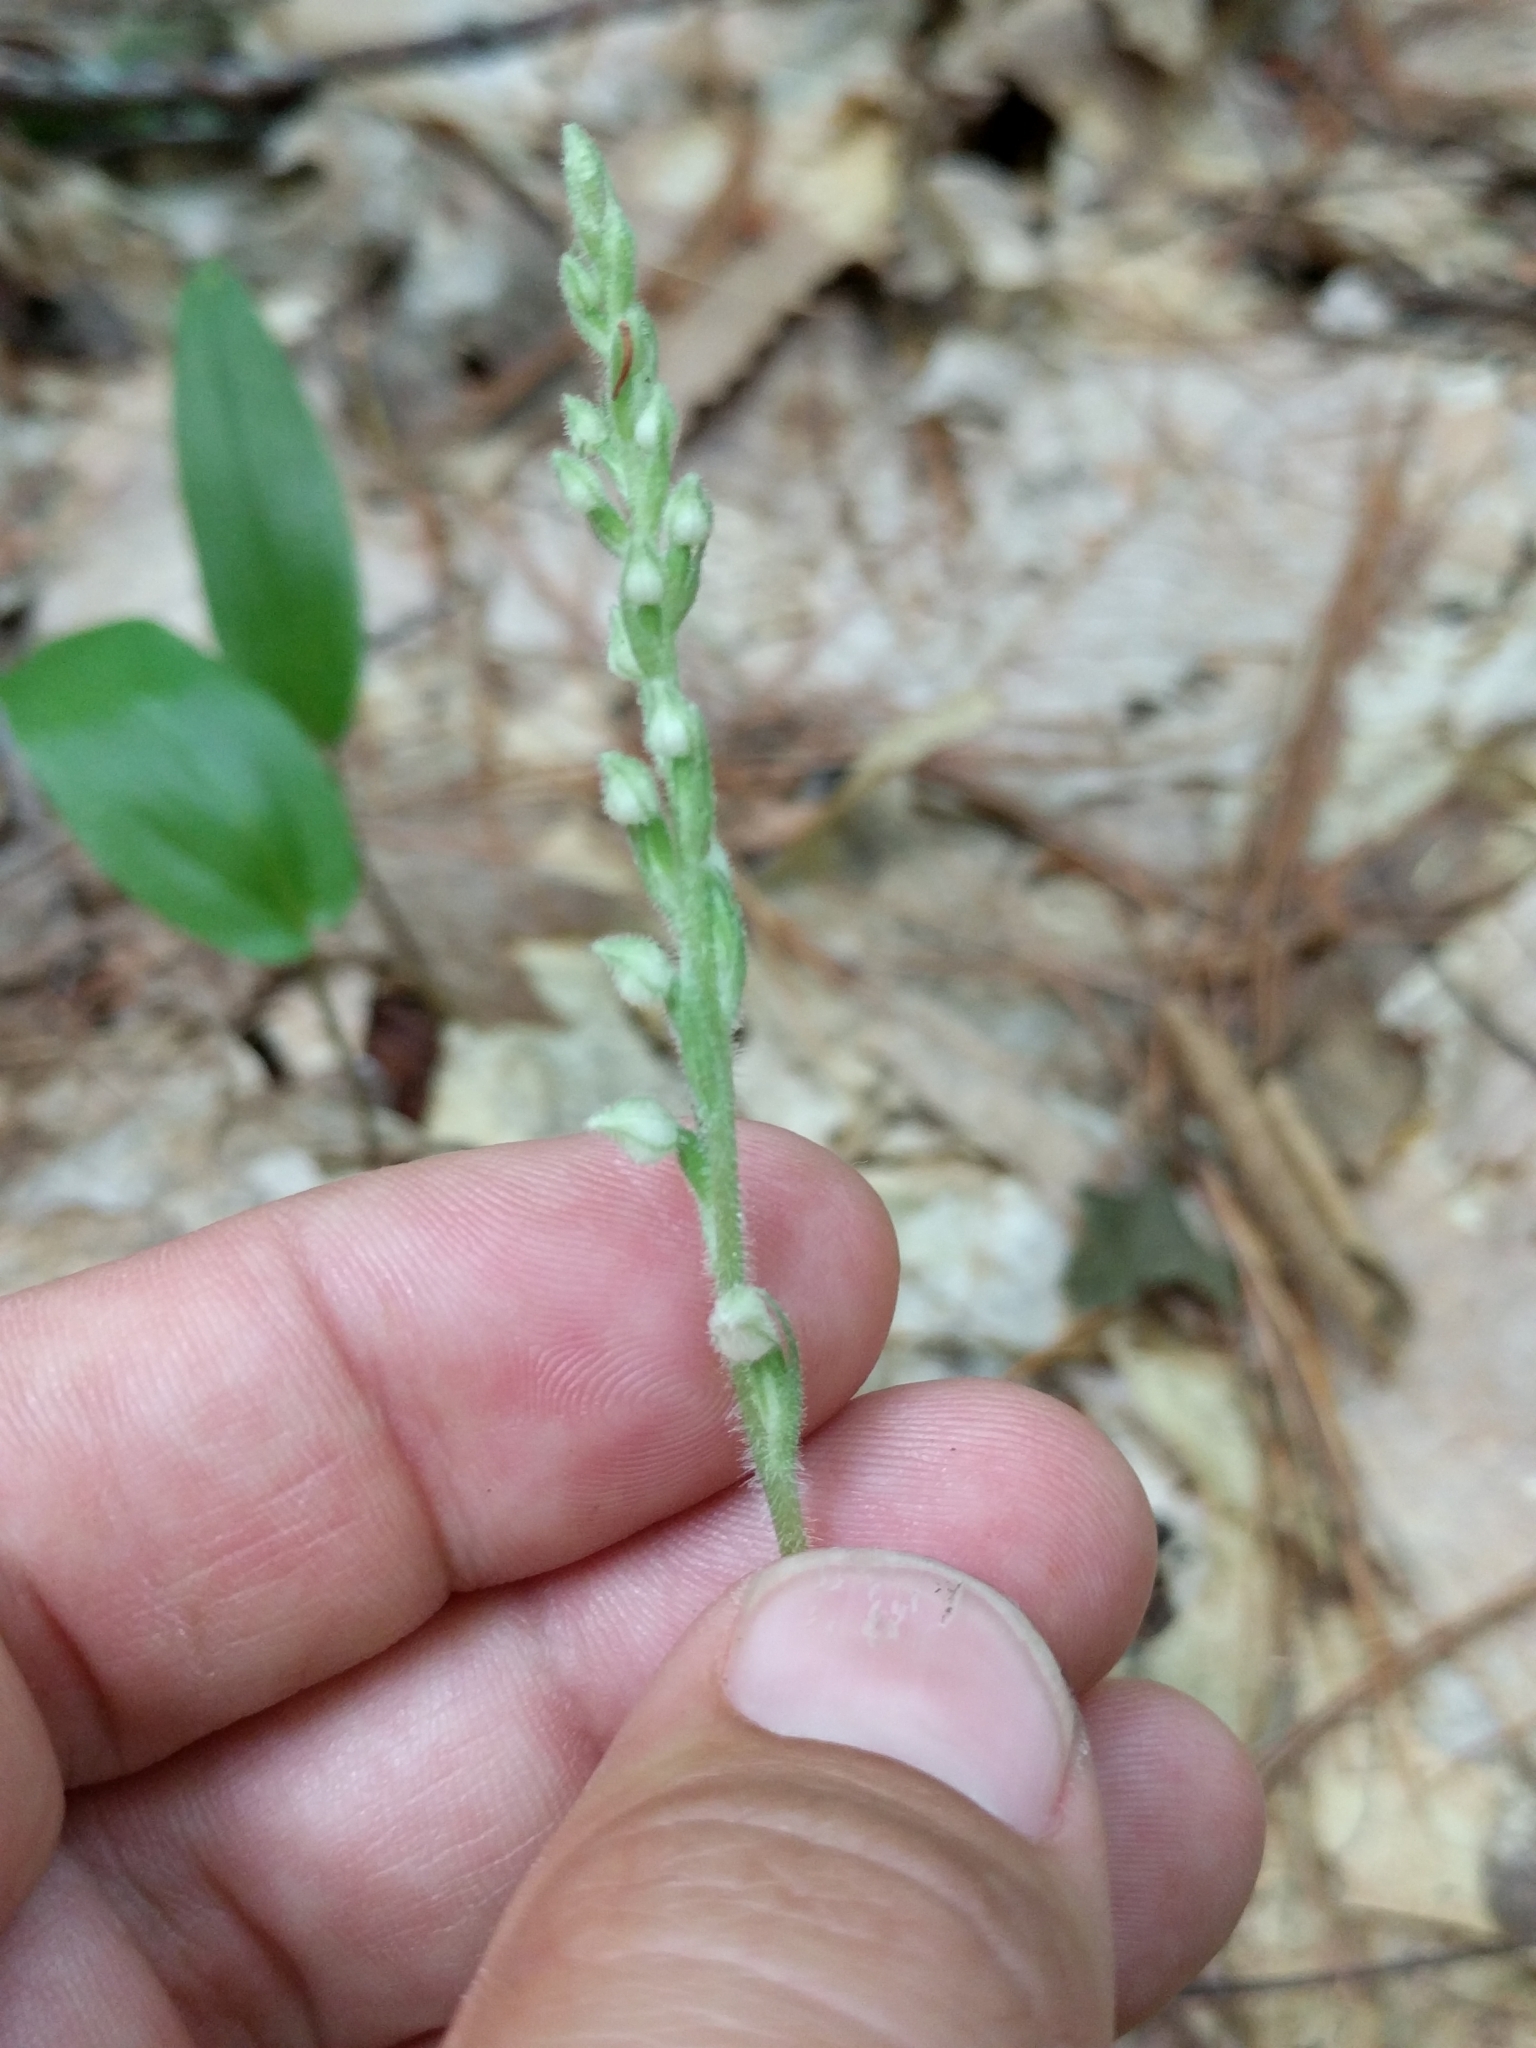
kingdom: Plantae
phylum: Tracheophyta
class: Liliopsida
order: Asparagales
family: Orchidaceae
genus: Goodyera
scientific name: Goodyera tesselata
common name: Checkered rattlesnake-plantain
